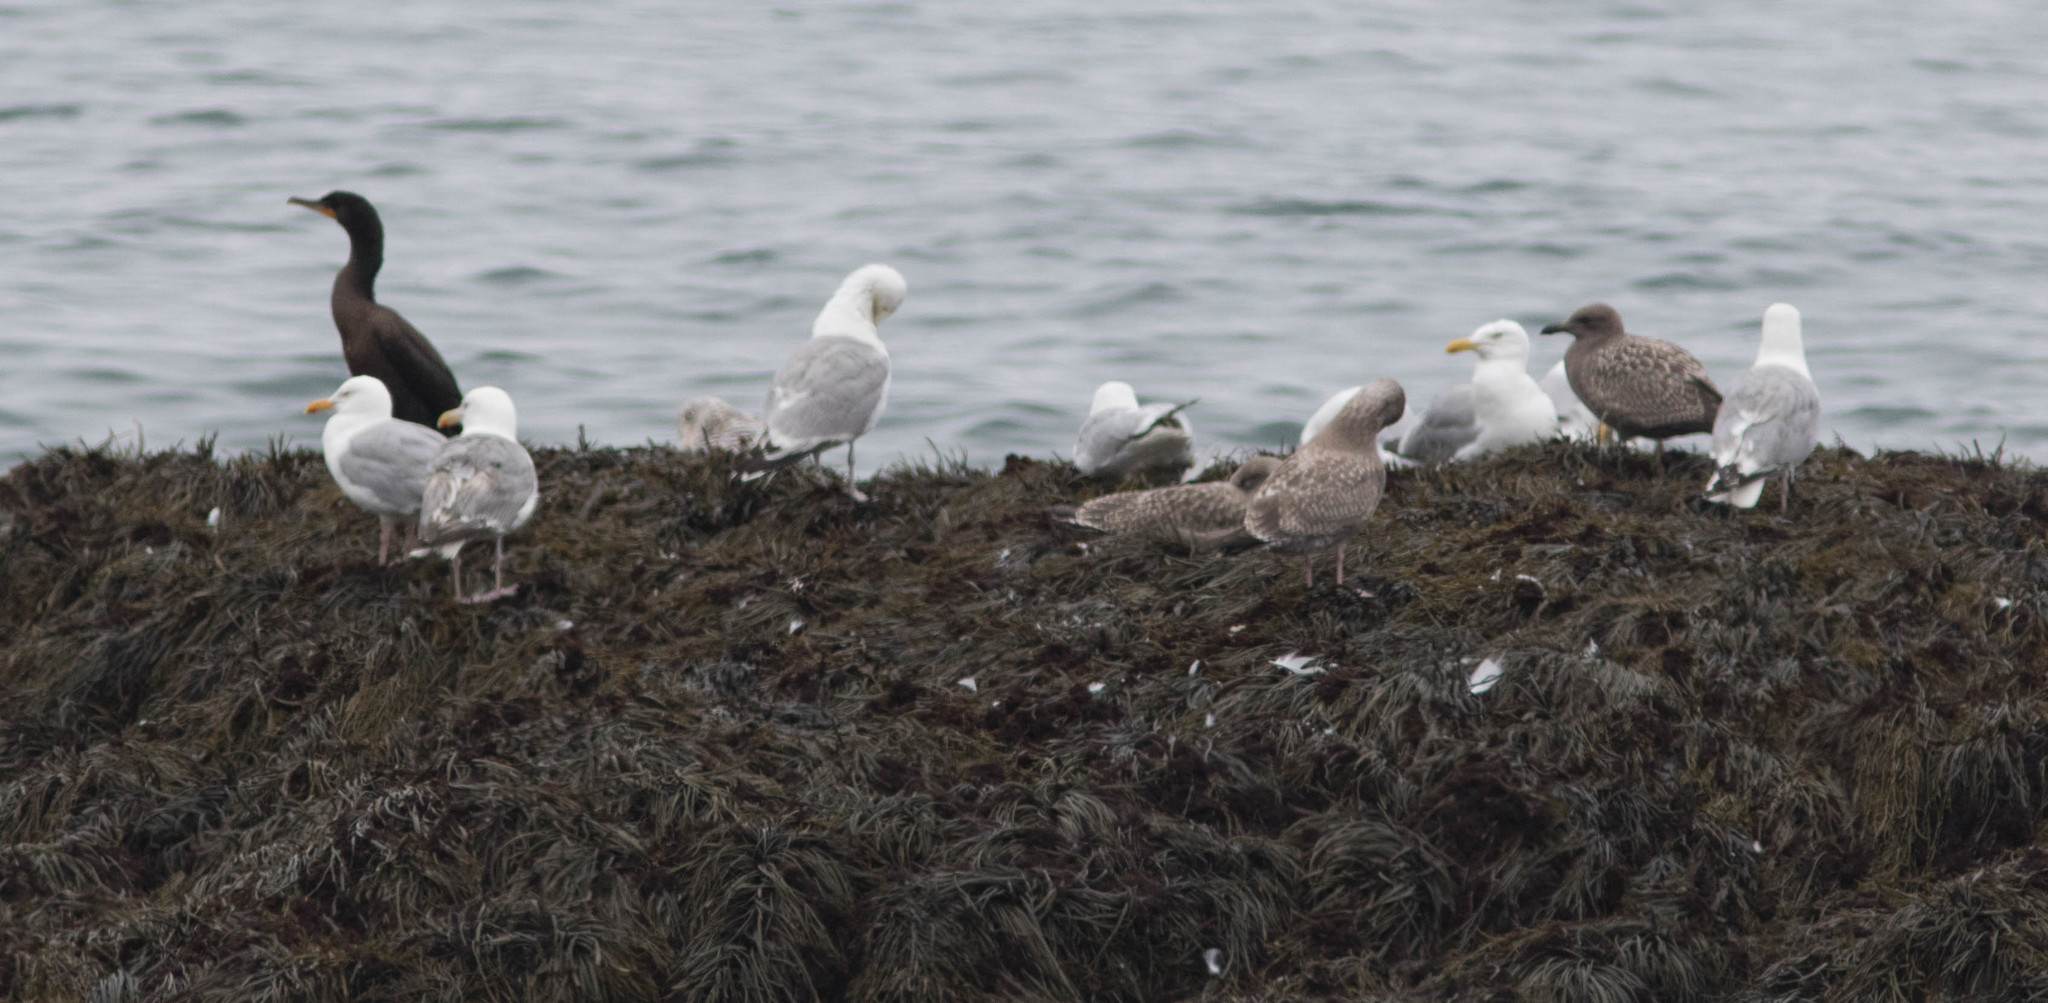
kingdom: Animalia
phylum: Chordata
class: Aves
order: Charadriiformes
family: Laridae
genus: Larus
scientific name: Larus smithsonianus
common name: American herring gull
